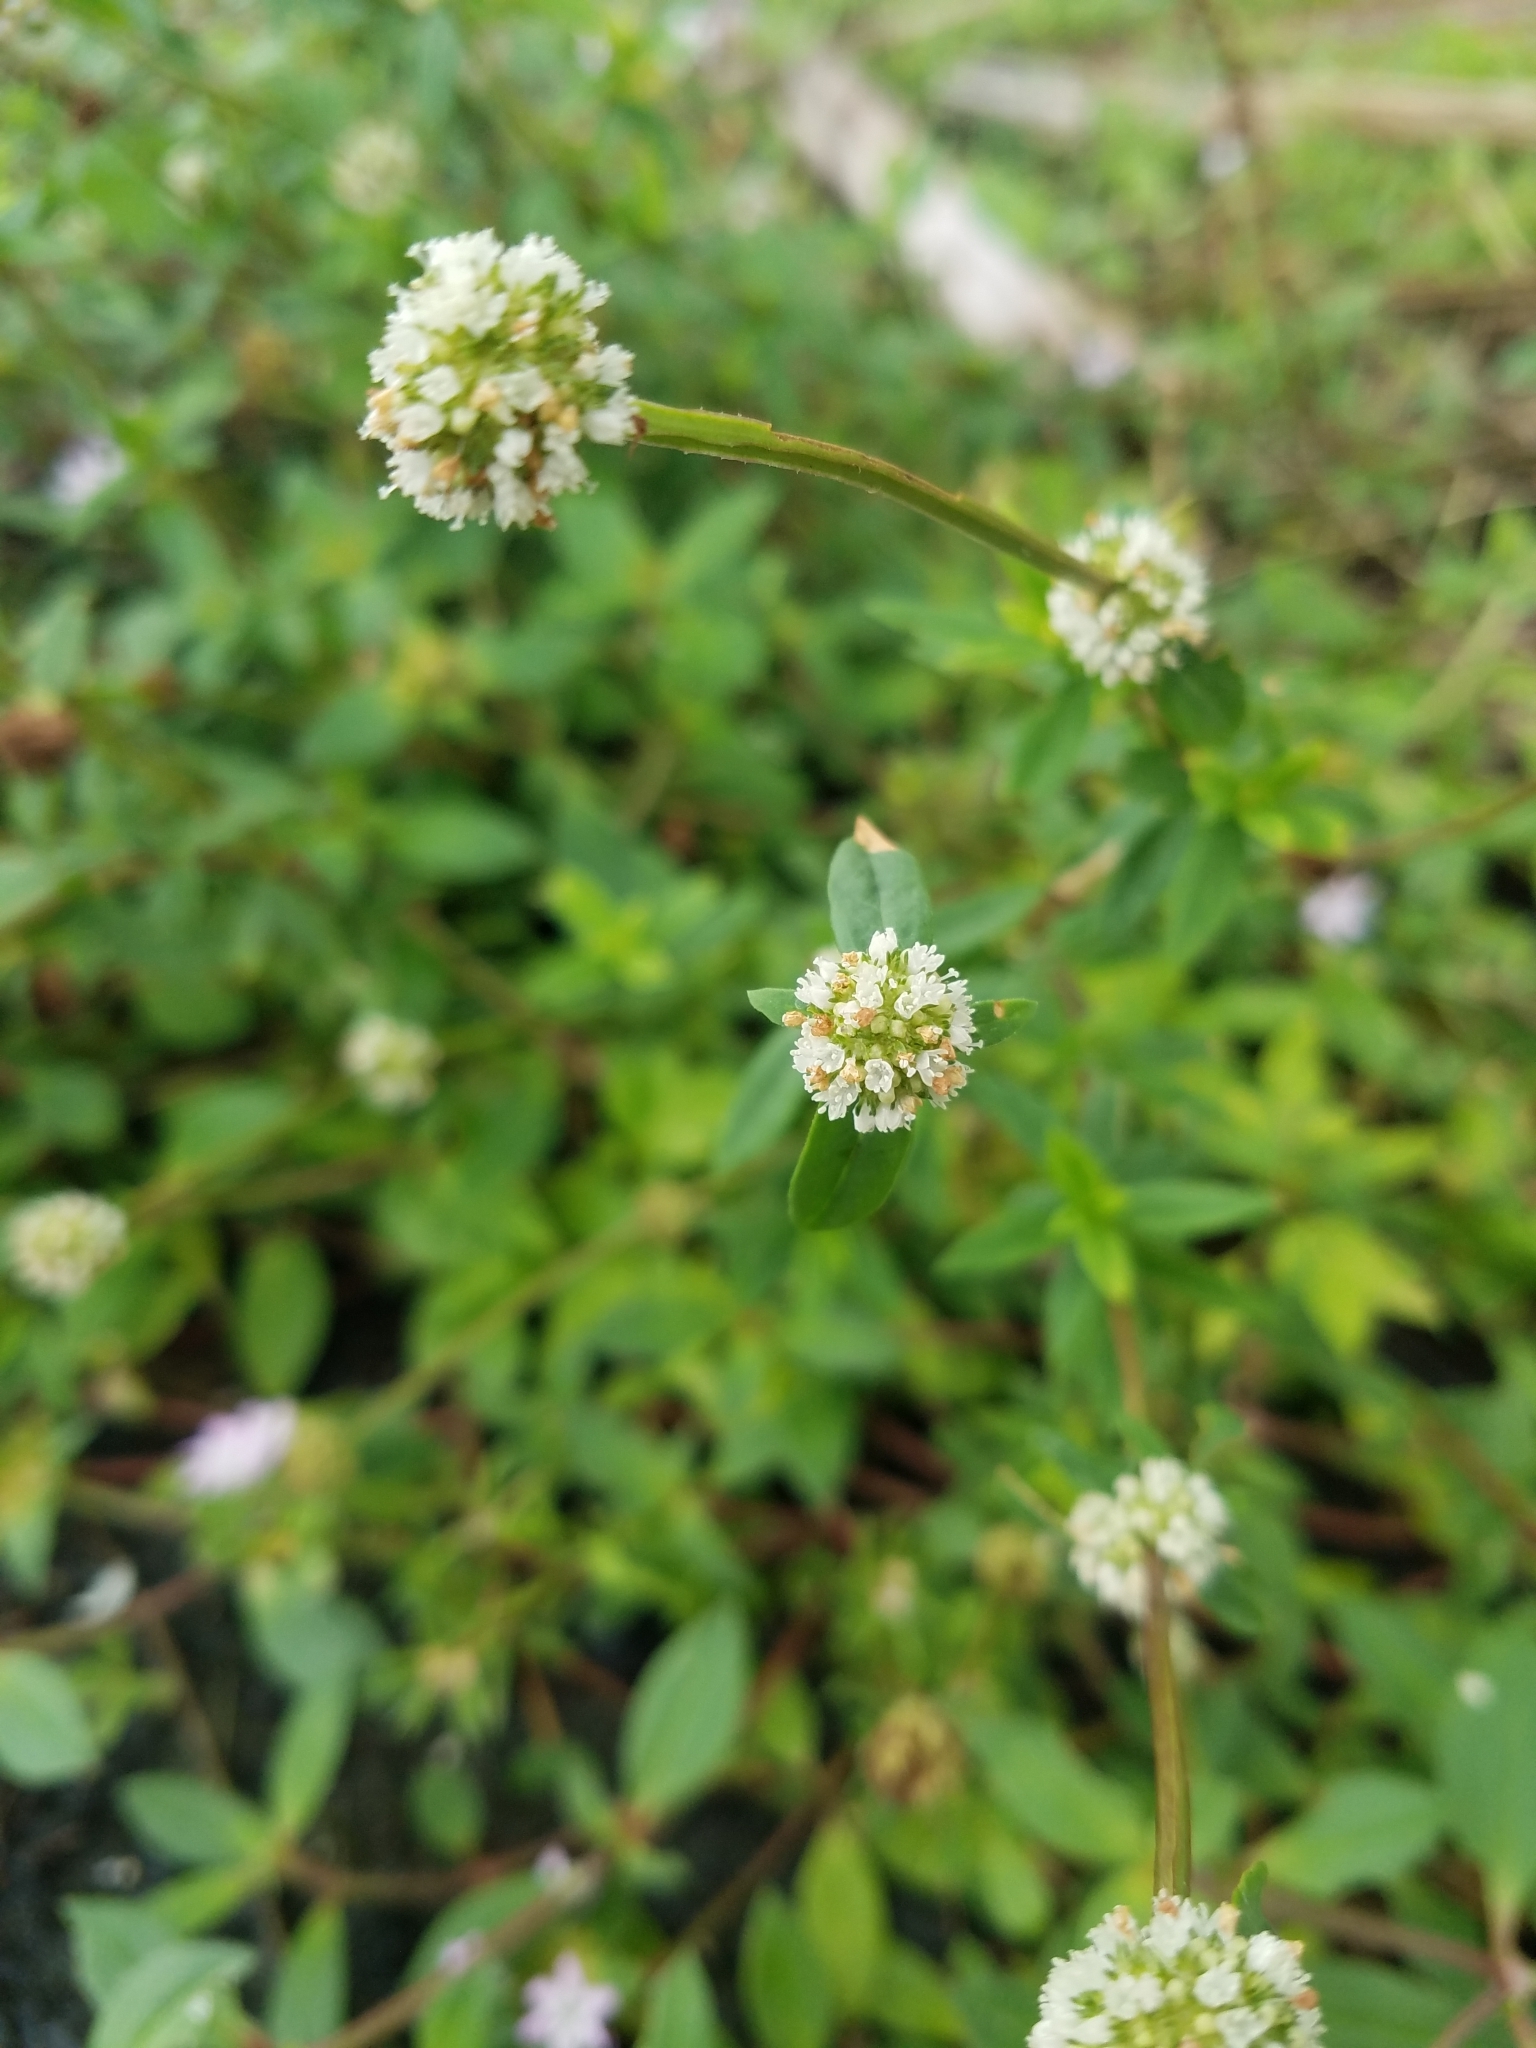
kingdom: Plantae
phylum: Tracheophyta
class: Magnoliopsida
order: Gentianales
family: Rubiaceae
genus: Spermacoce
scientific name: Spermacoce verticillata
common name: Shrubby false buttonweed
